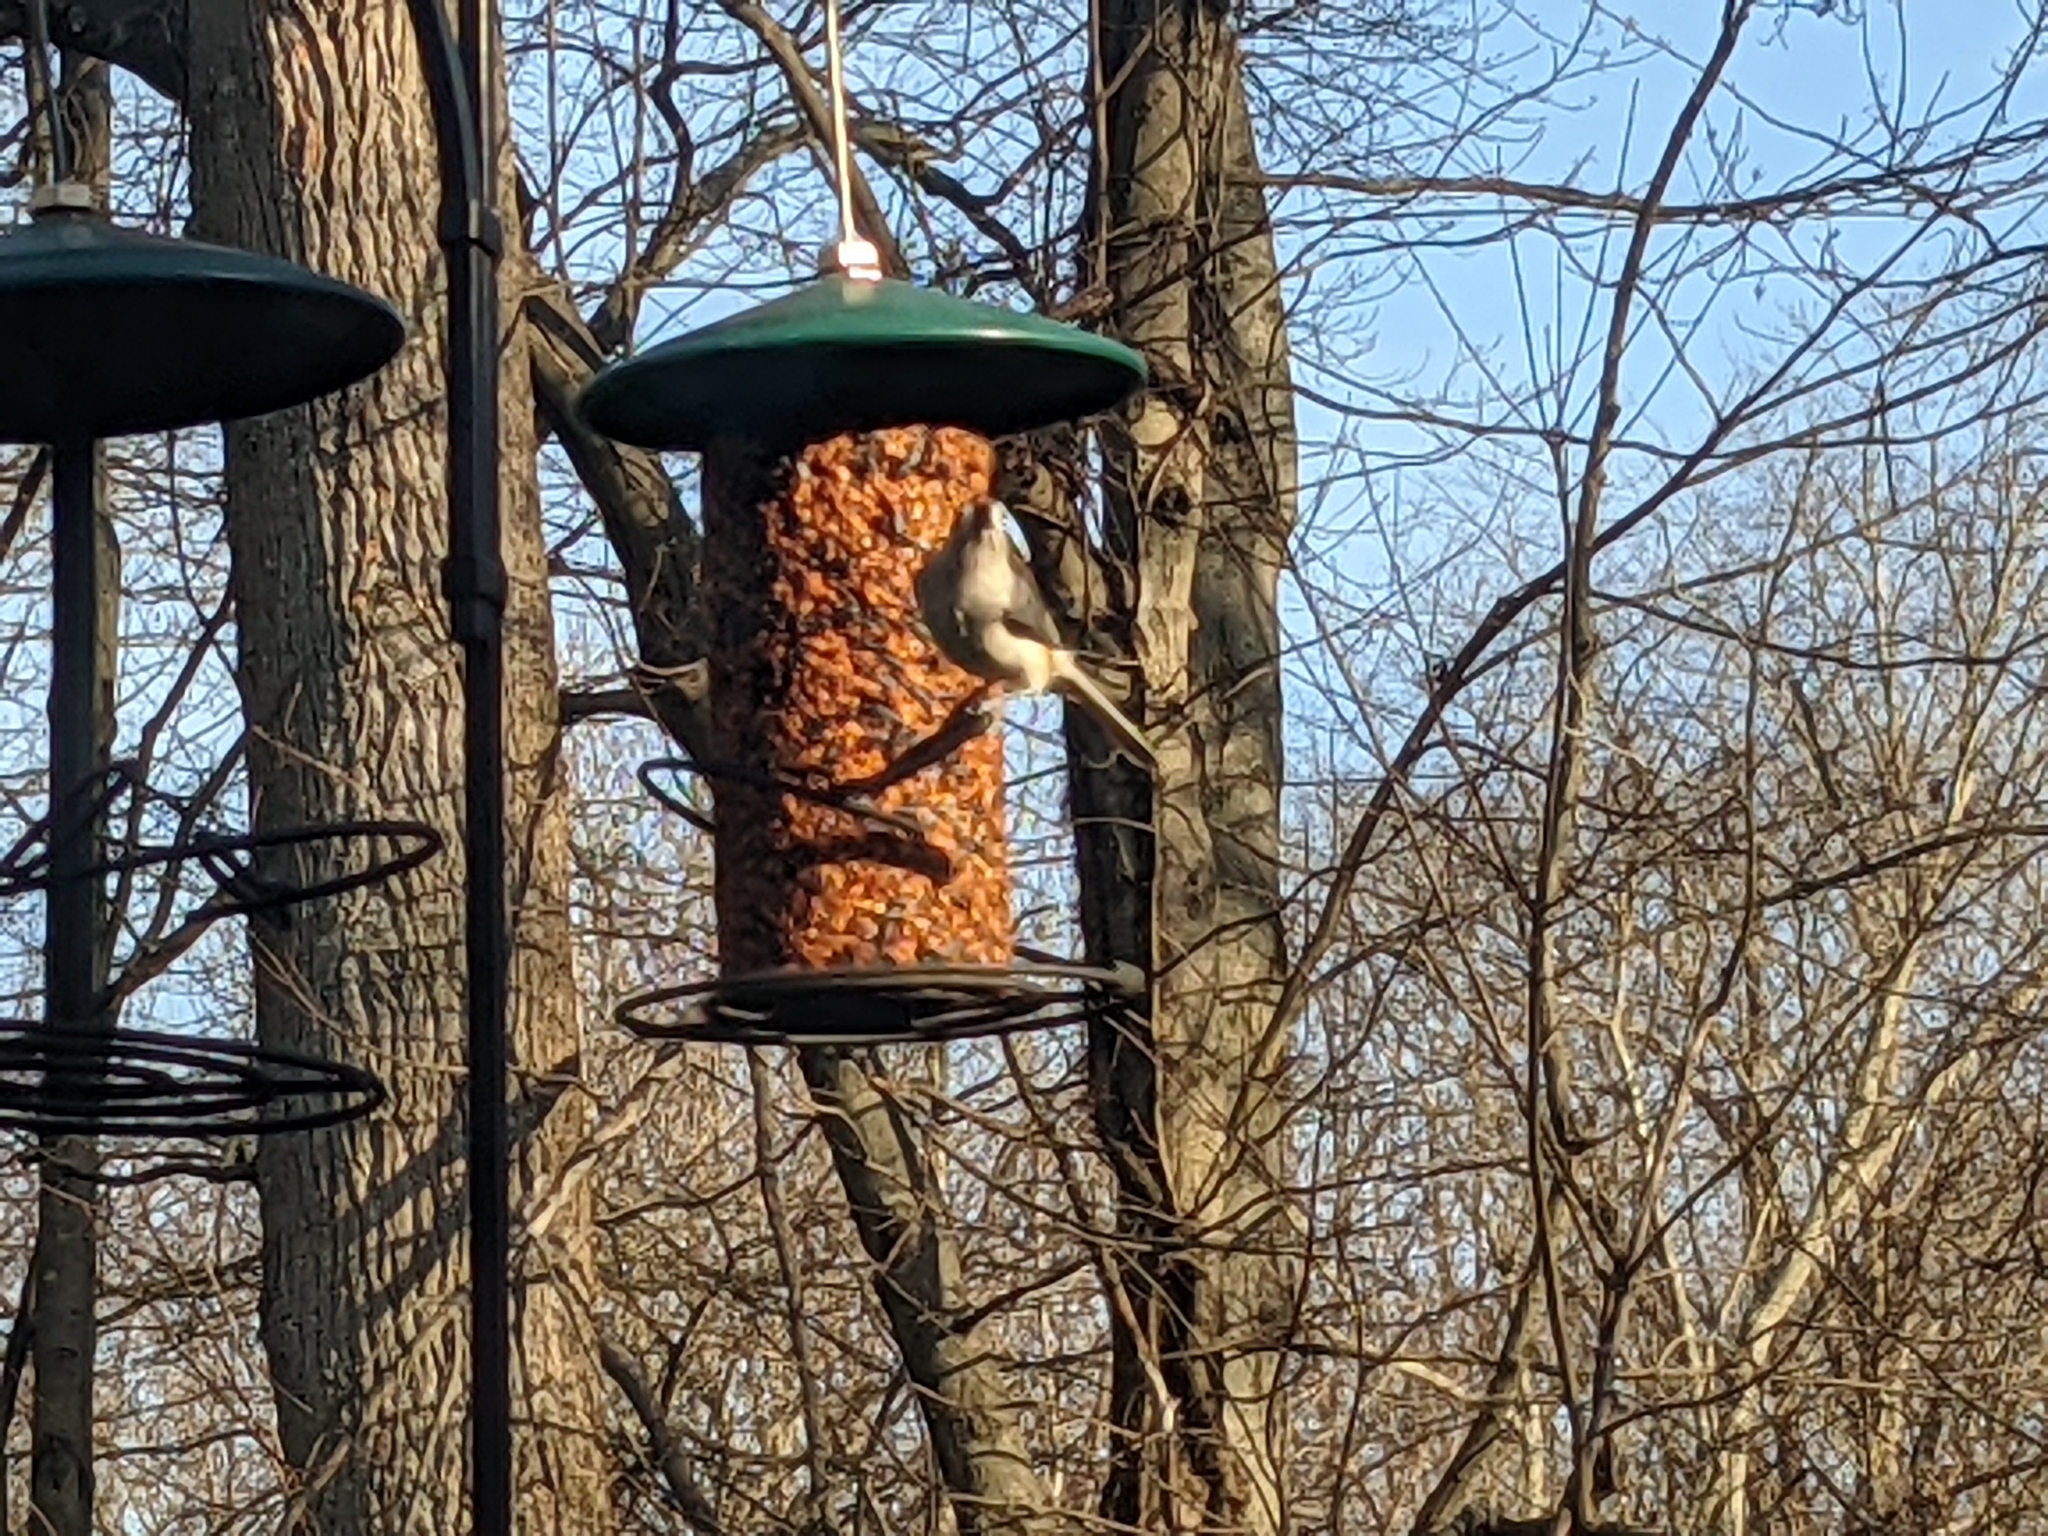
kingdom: Animalia
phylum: Chordata
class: Aves
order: Passeriformes
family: Paridae
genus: Baeolophus
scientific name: Baeolophus bicolor
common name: Tufted titmouse
